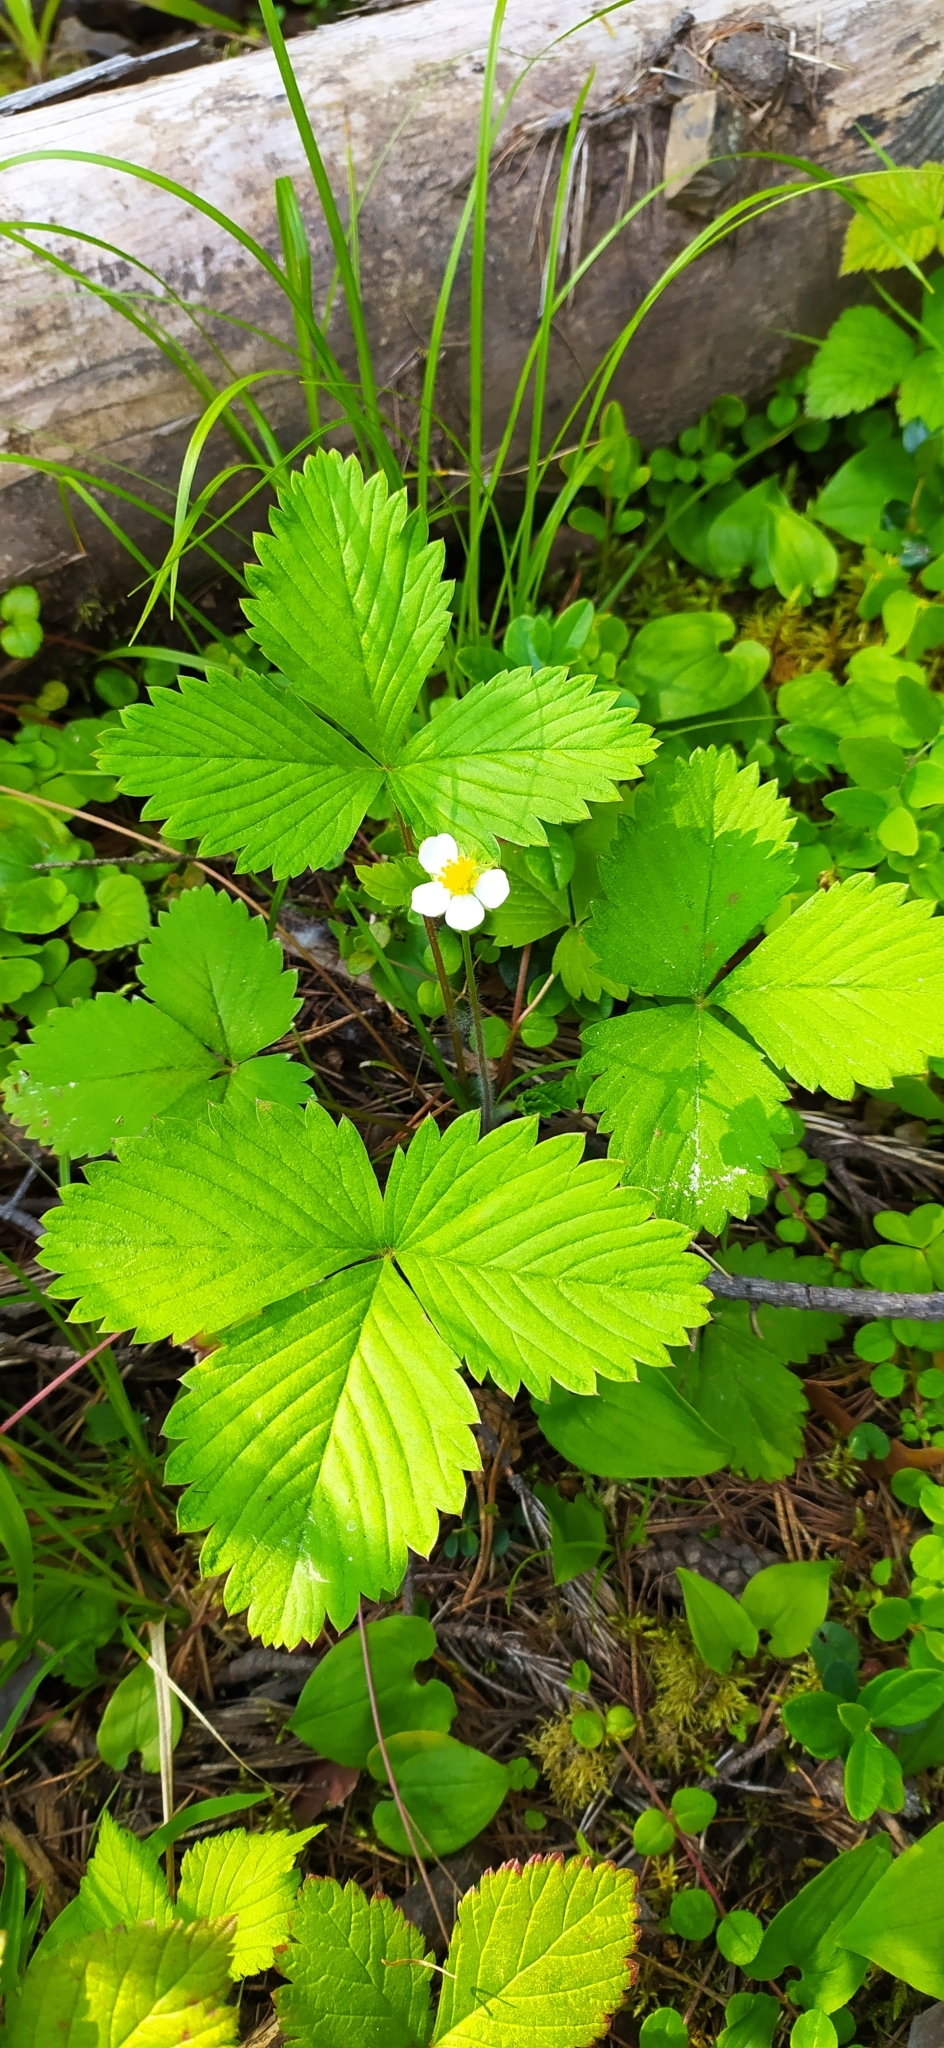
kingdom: Plantae
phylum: Tracheophyta
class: Magnoliopsida
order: Rosales
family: Rosaceae
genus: Fragaria
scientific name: Fragaria vesca
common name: Wild strawberry
